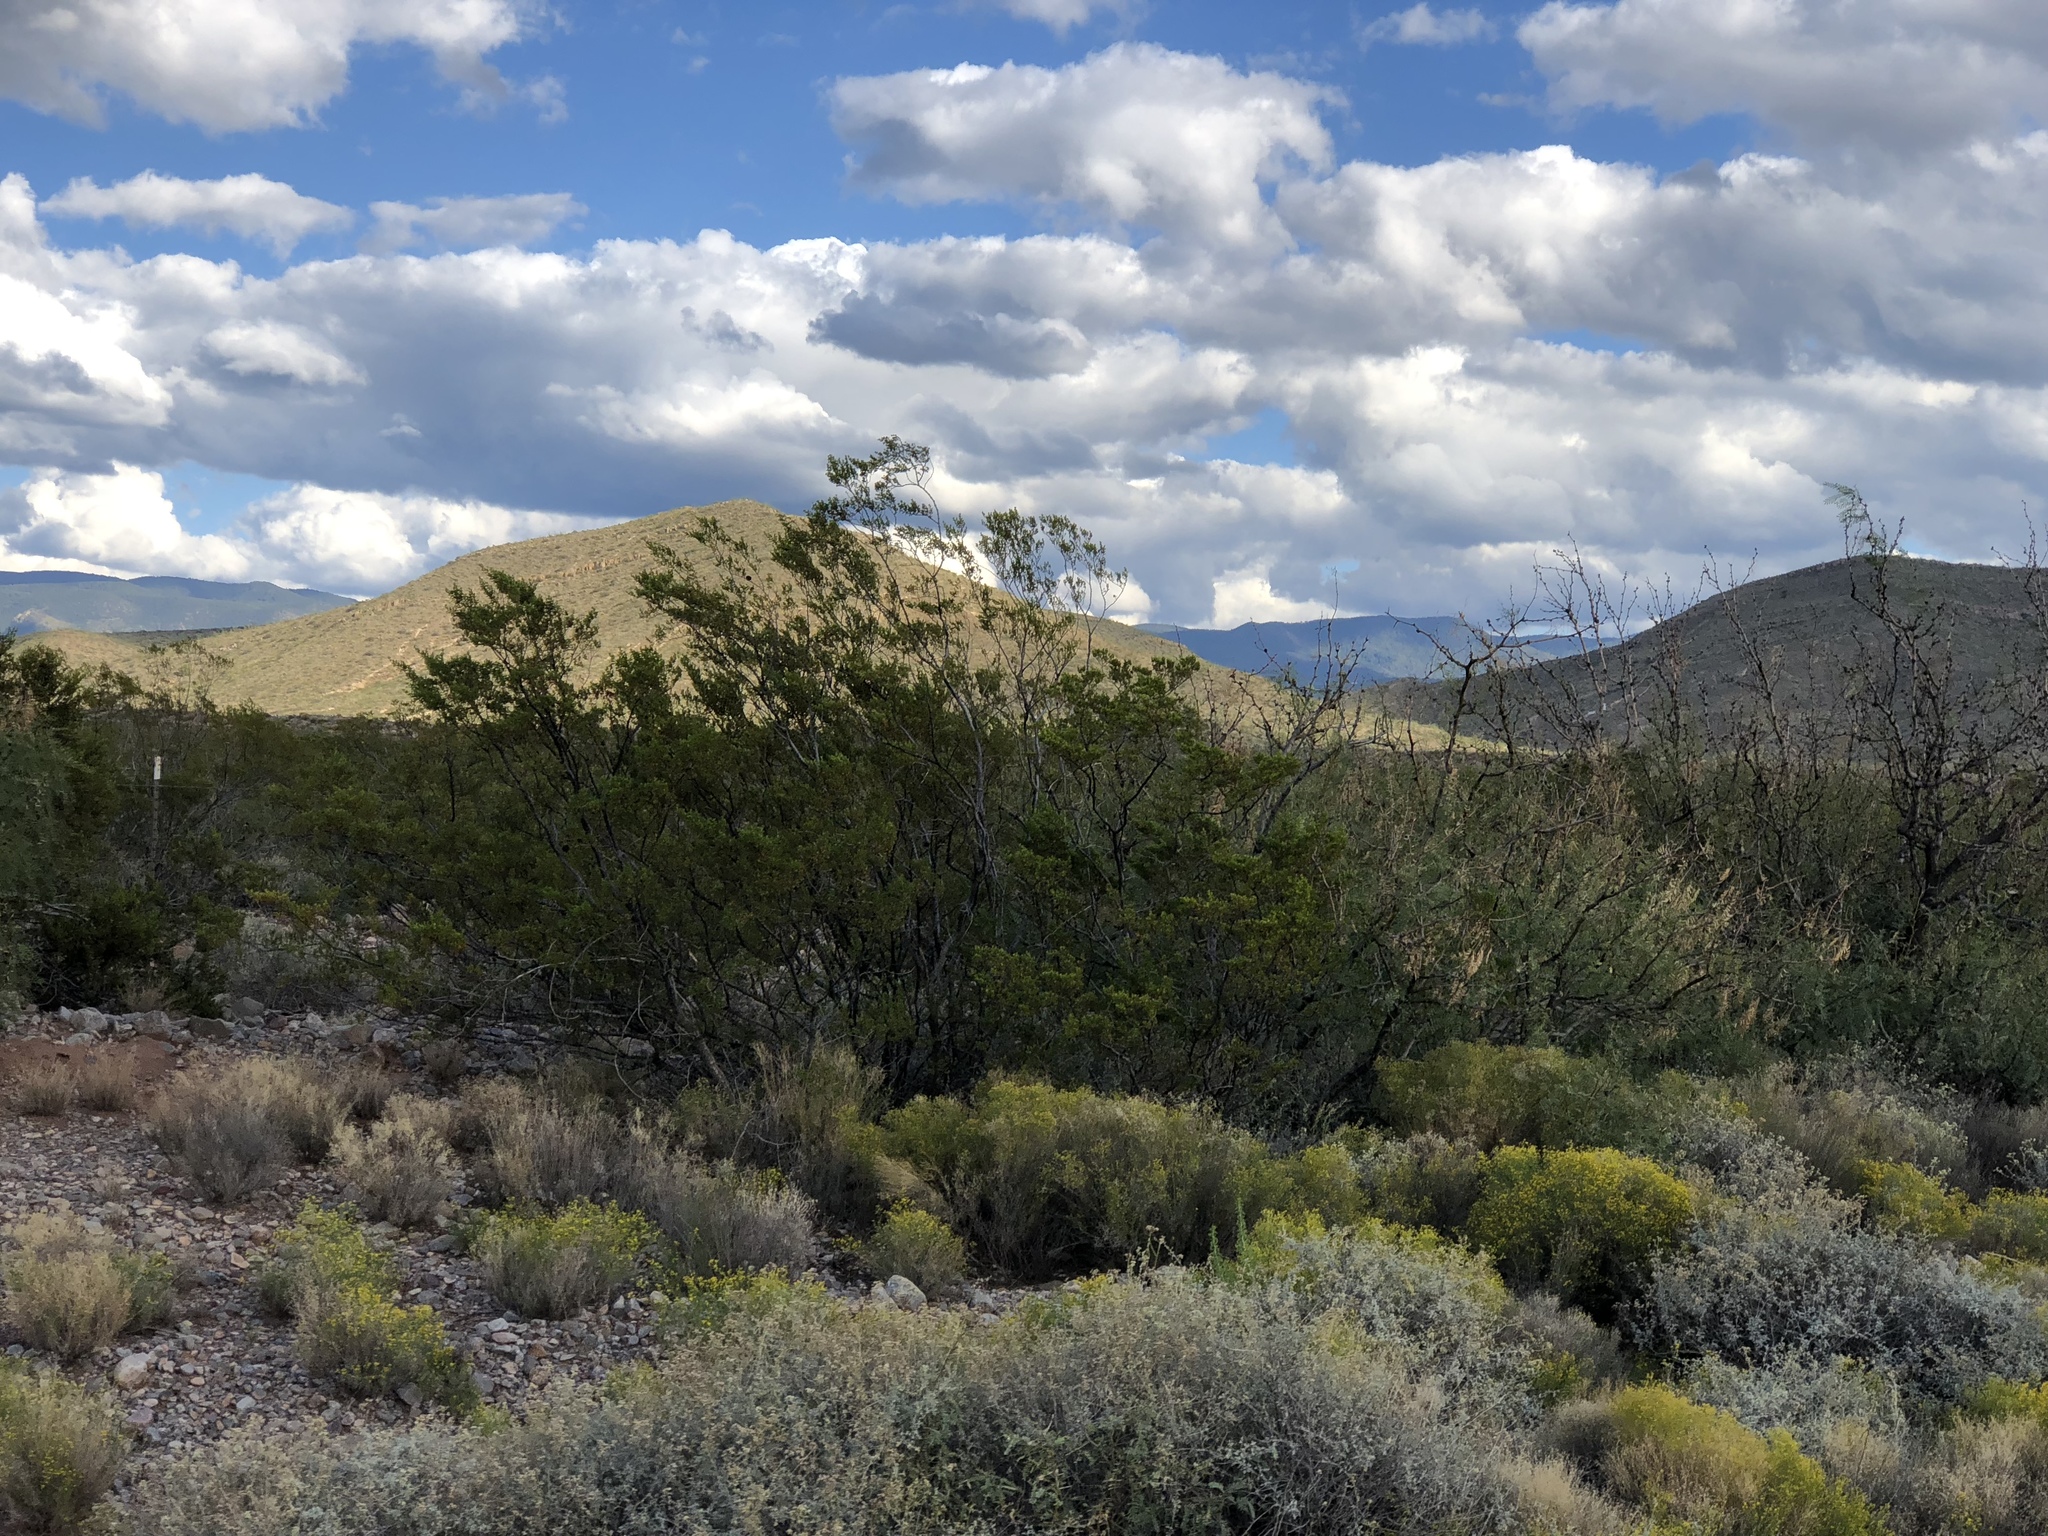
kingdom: Plantae
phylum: Tracheophyta
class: Magnoliopsida
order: Zygophyllales
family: Zygophyllaceae
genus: Larrea
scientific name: Larrea tridentata
